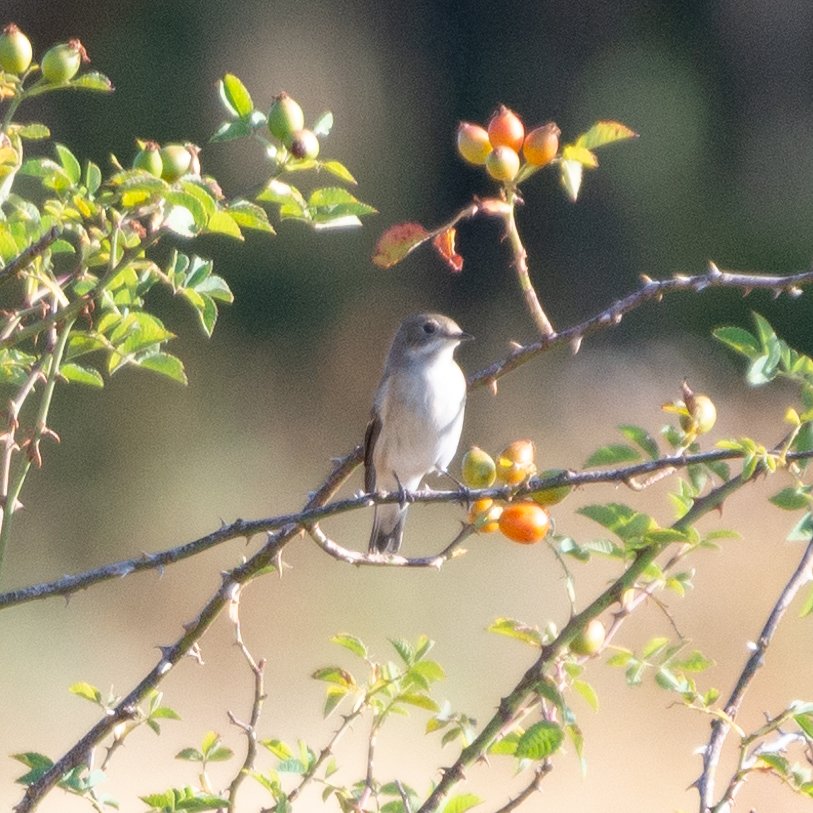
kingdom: Animalia
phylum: Chordata
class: Aves
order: Passeriformes
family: Muscicapidae
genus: Ficedula
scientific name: Ficedula hypoleuca
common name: European pied flycatcher
